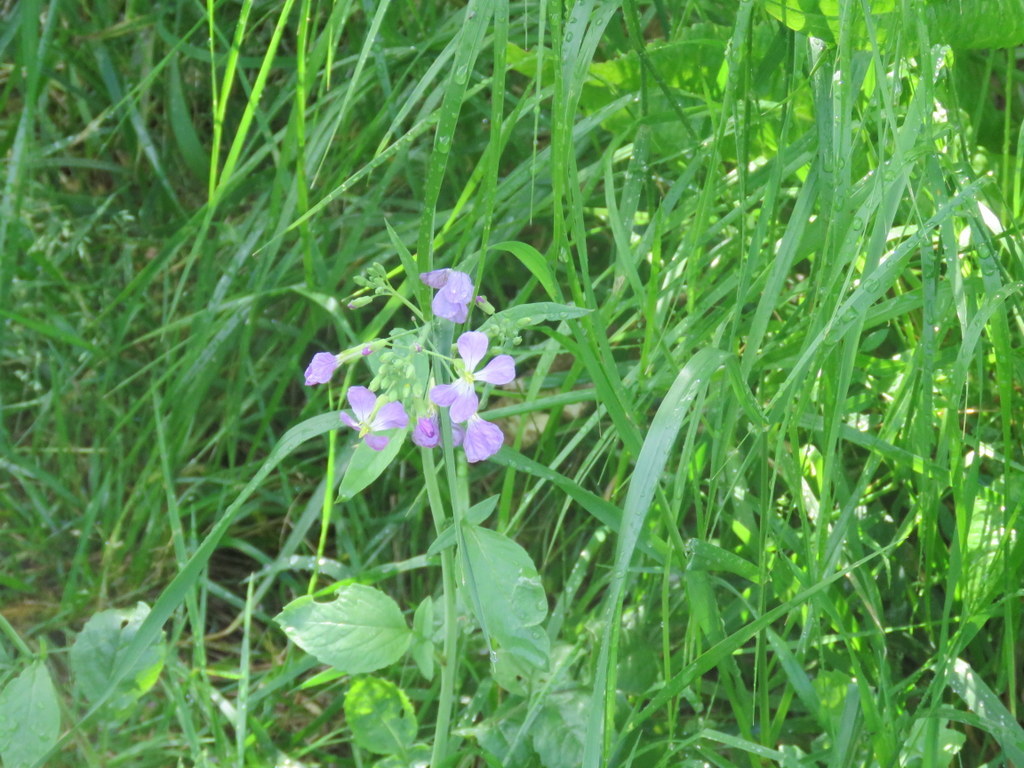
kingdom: Plantae
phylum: Tracheophyta
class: Magnoliopsida
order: Brassicales
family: Brassicaceae
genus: Raphanus
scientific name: Raphanus sativus
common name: Cultivated radish
